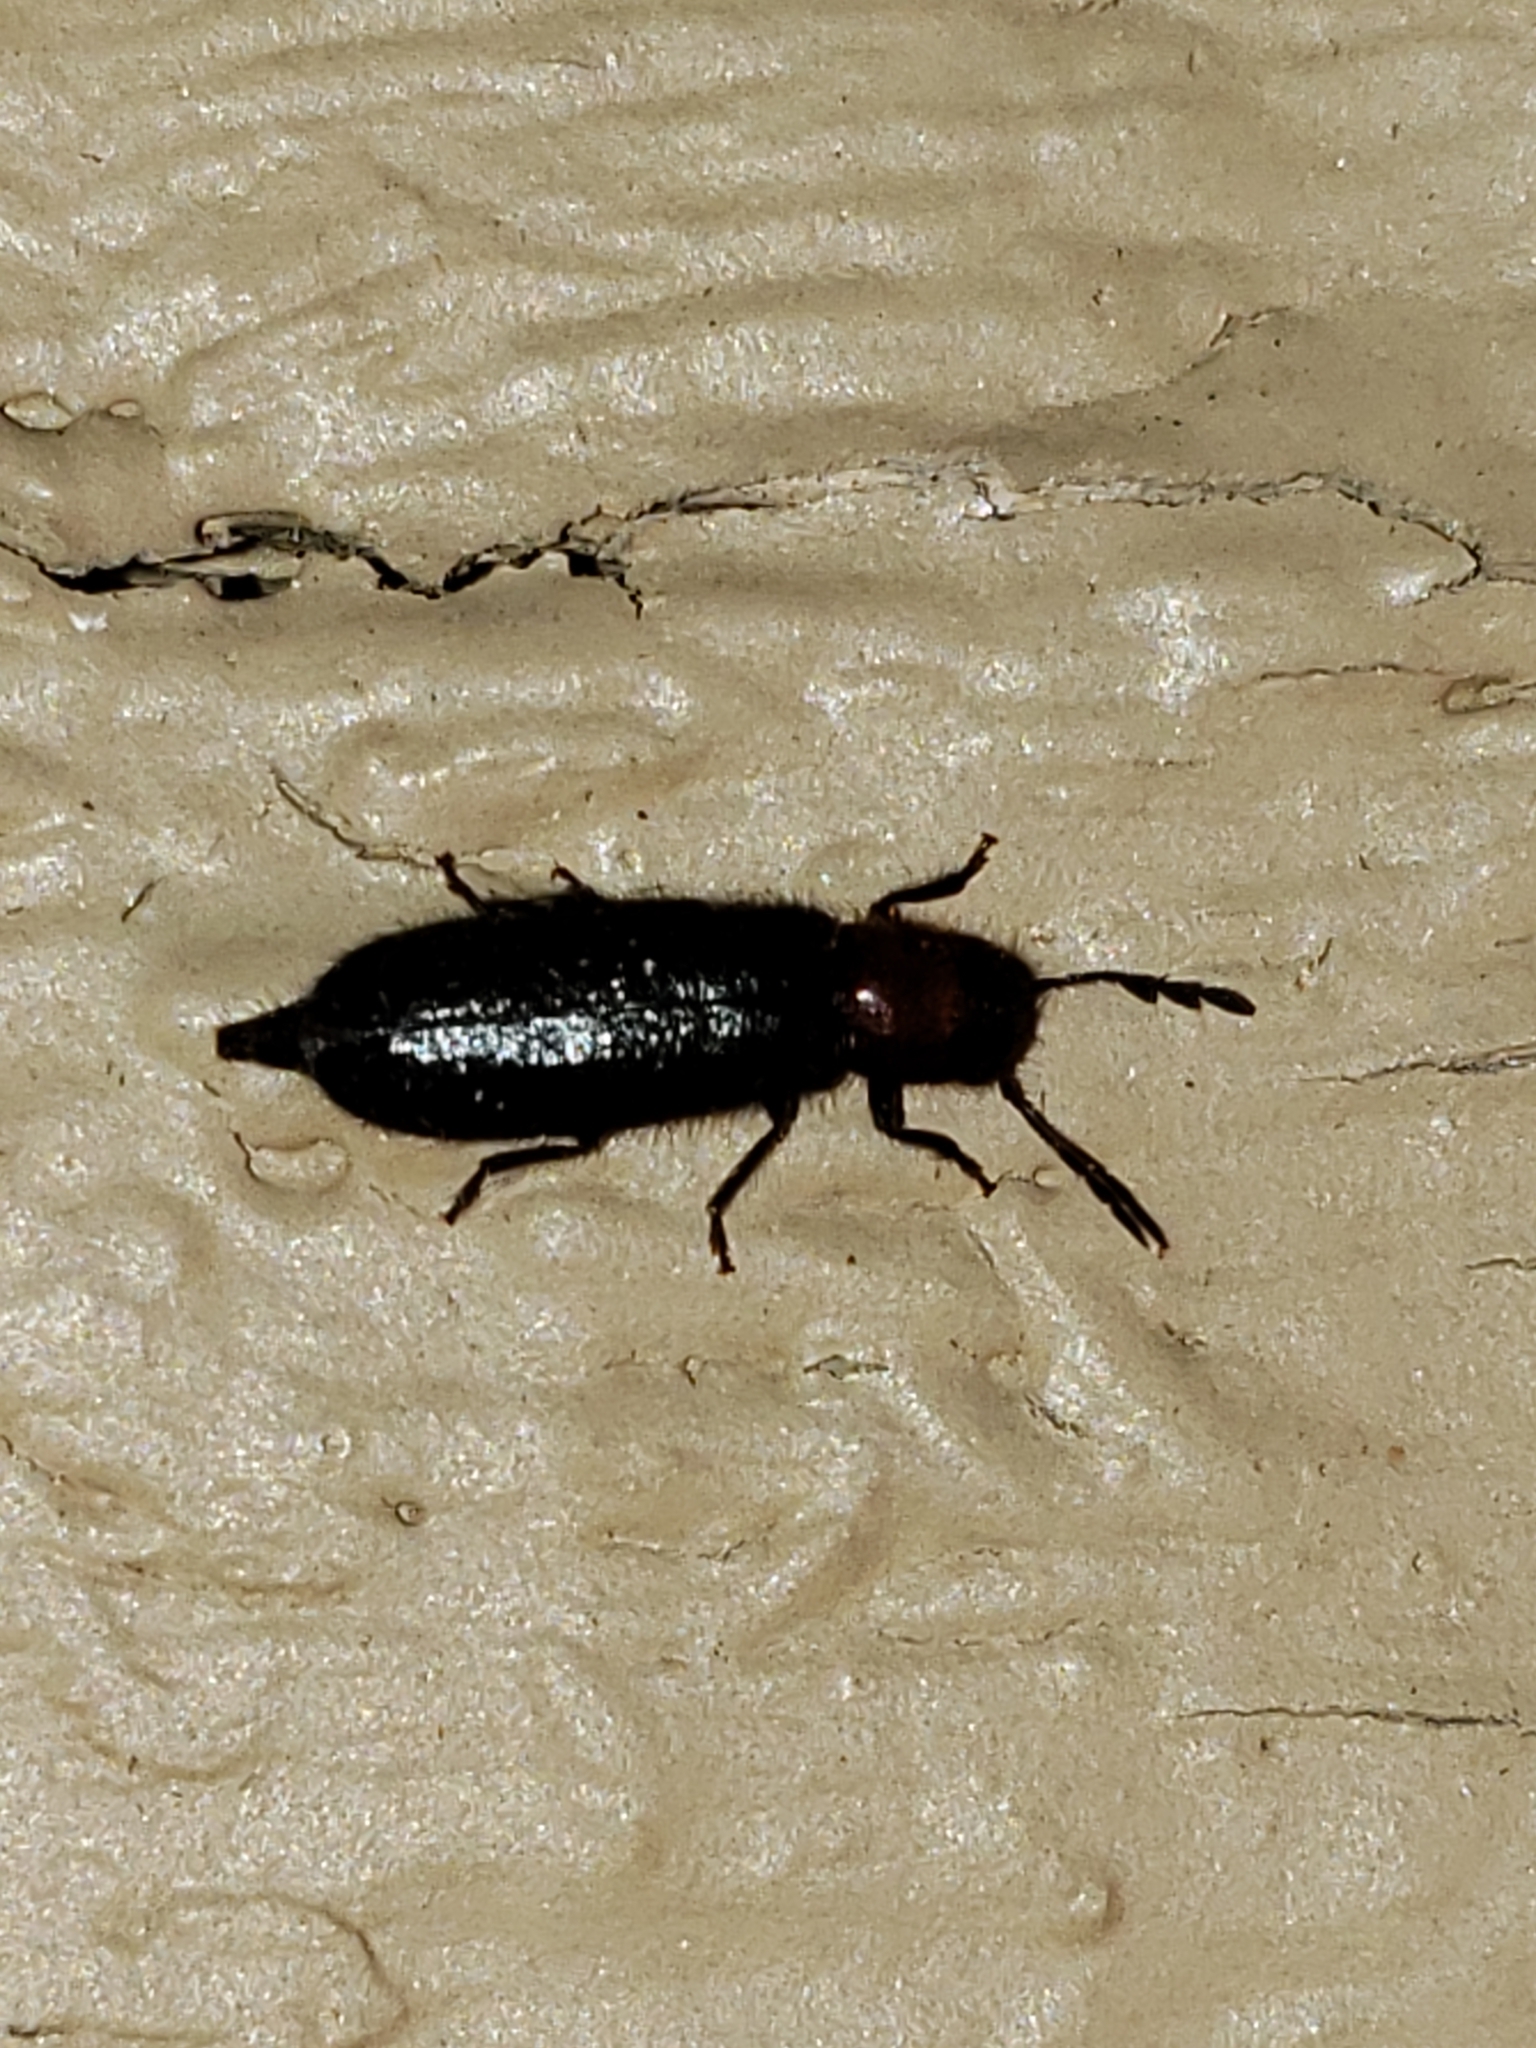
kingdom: Animalia
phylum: Arthropoda
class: Insecta
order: Coleoptera
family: Cleridae
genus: Neorthopleura
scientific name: Neorthopleura thoracica
